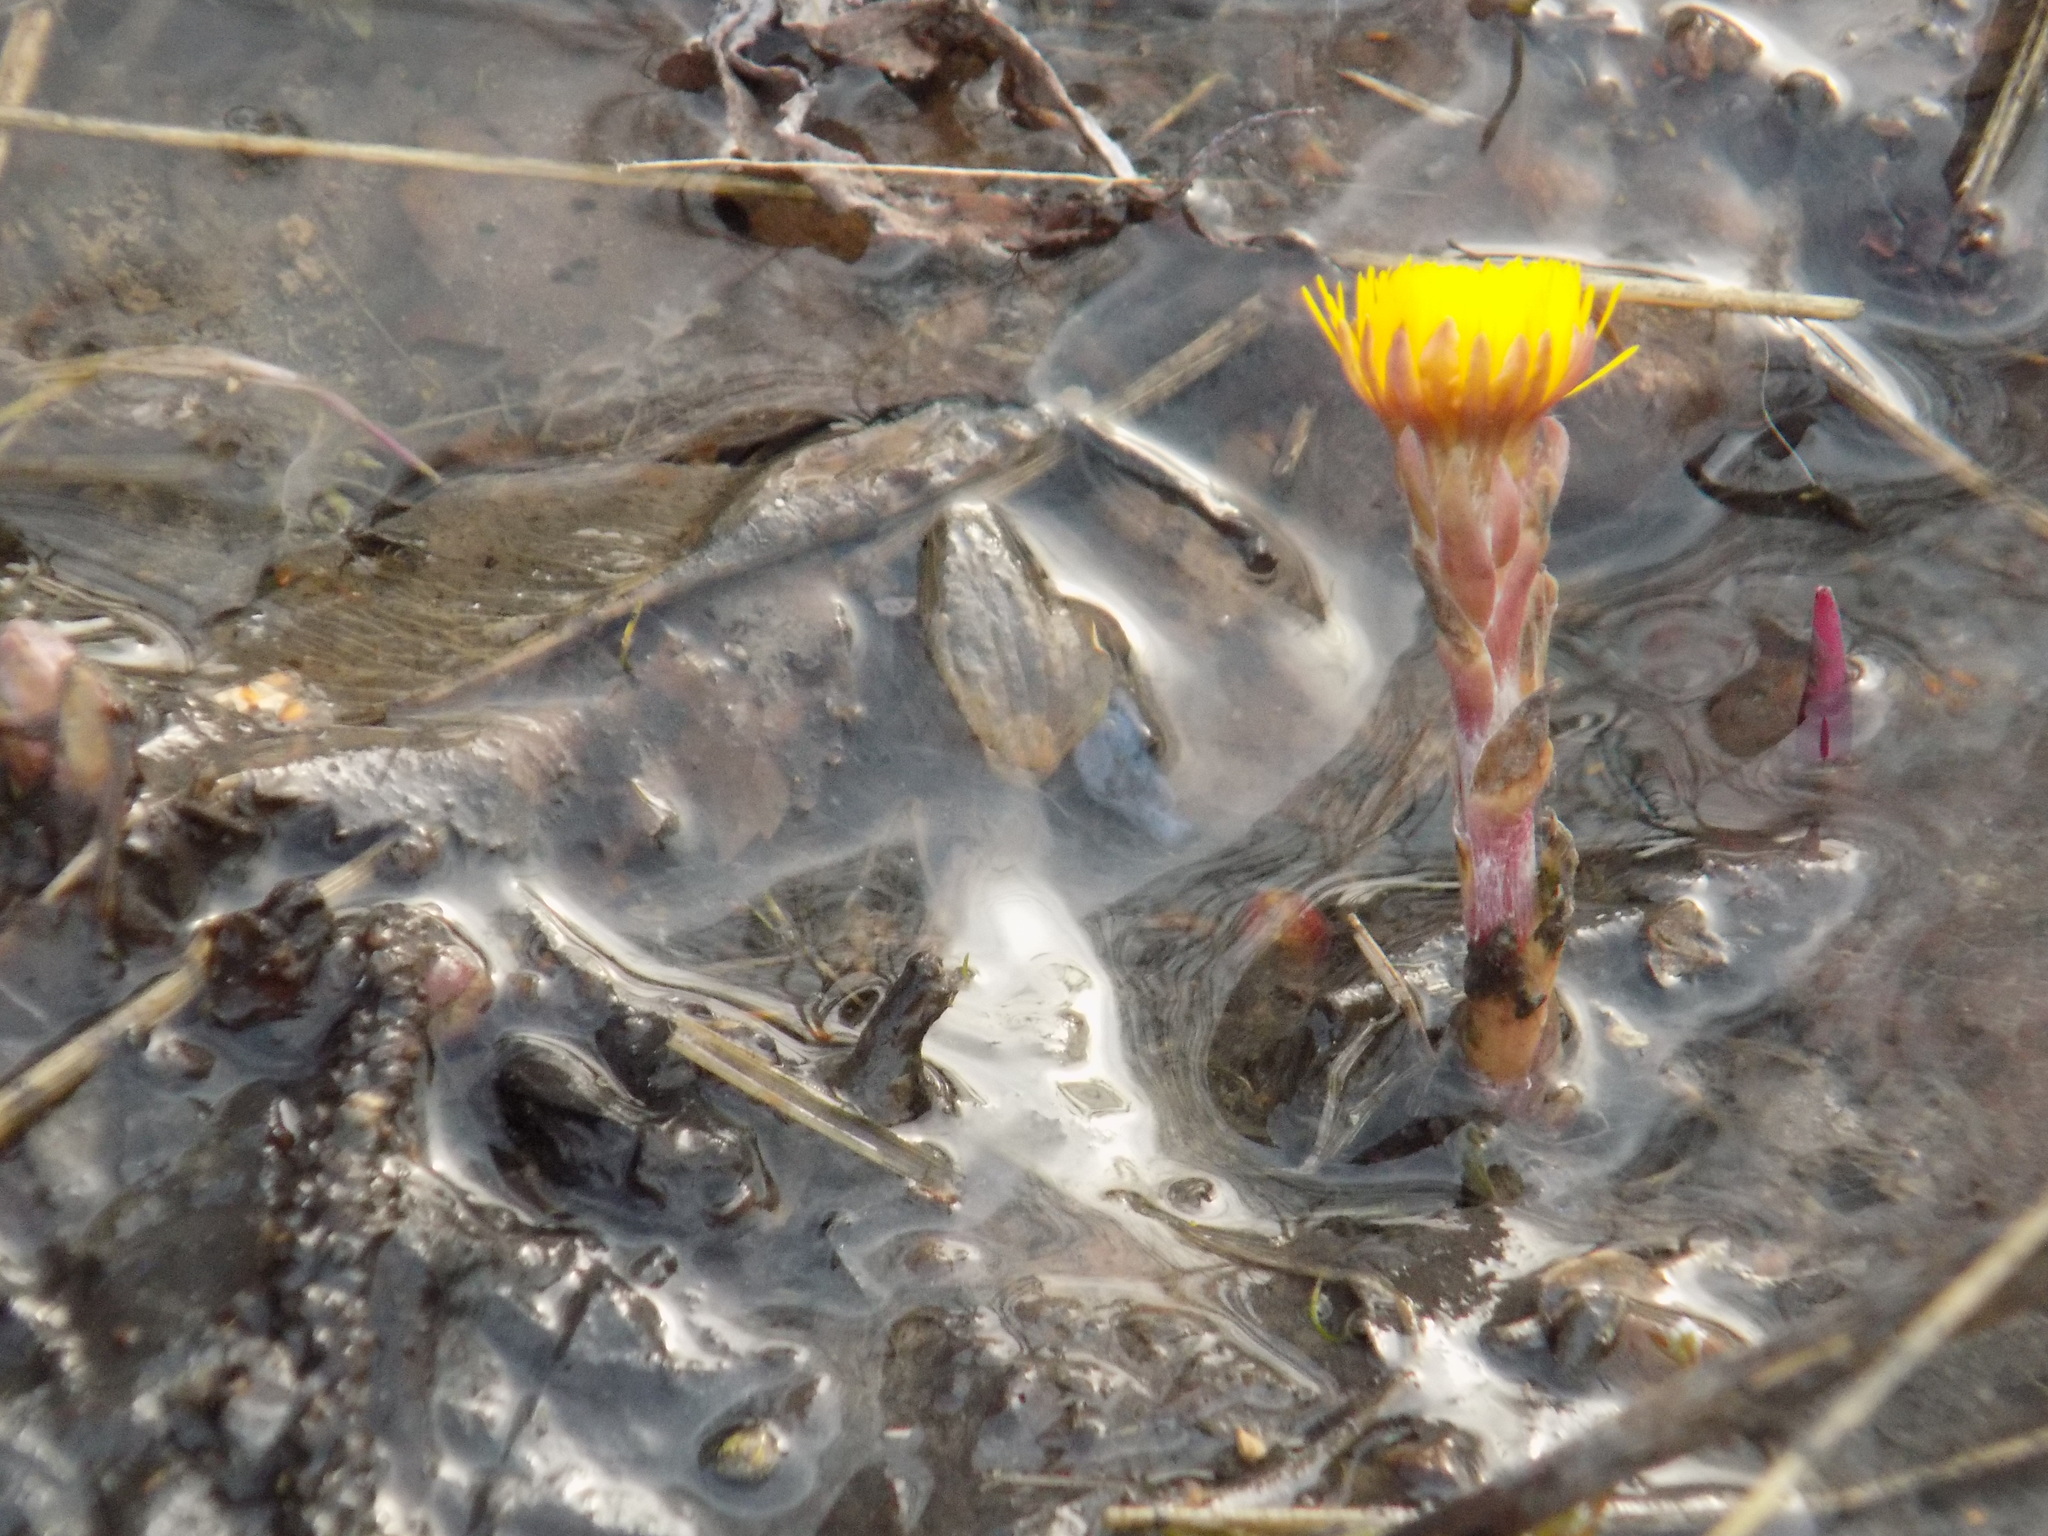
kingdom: Plantae
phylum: Tracheophyta
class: Magnoliopsida
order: Asterales
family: Asteraceae
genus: Tussilago
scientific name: Tussilago farfara
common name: Coltsfoot
